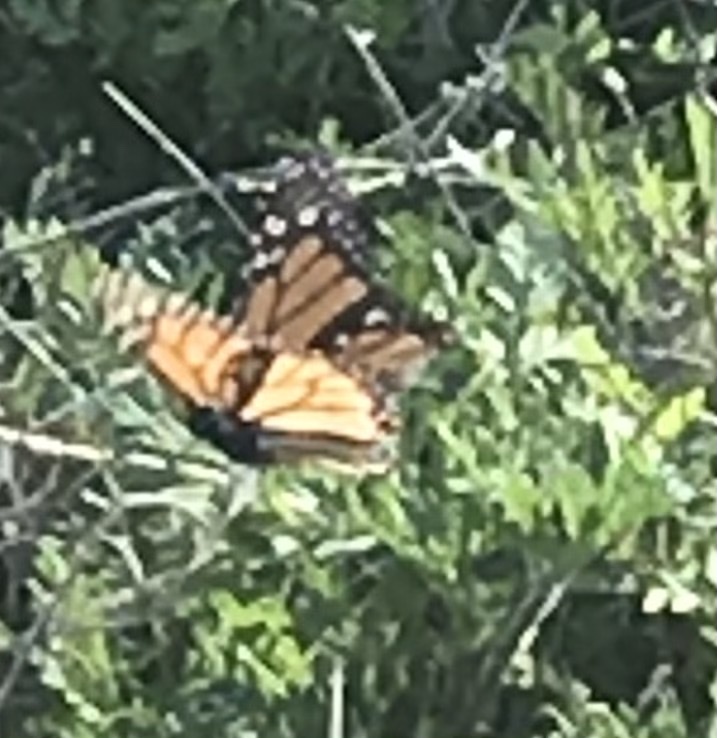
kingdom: Animalia
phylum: Arthropoda
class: Insecta
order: Lepidoptera
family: Nymphalidae
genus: Danaus
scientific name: Danaus plexippus
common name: Monarch
